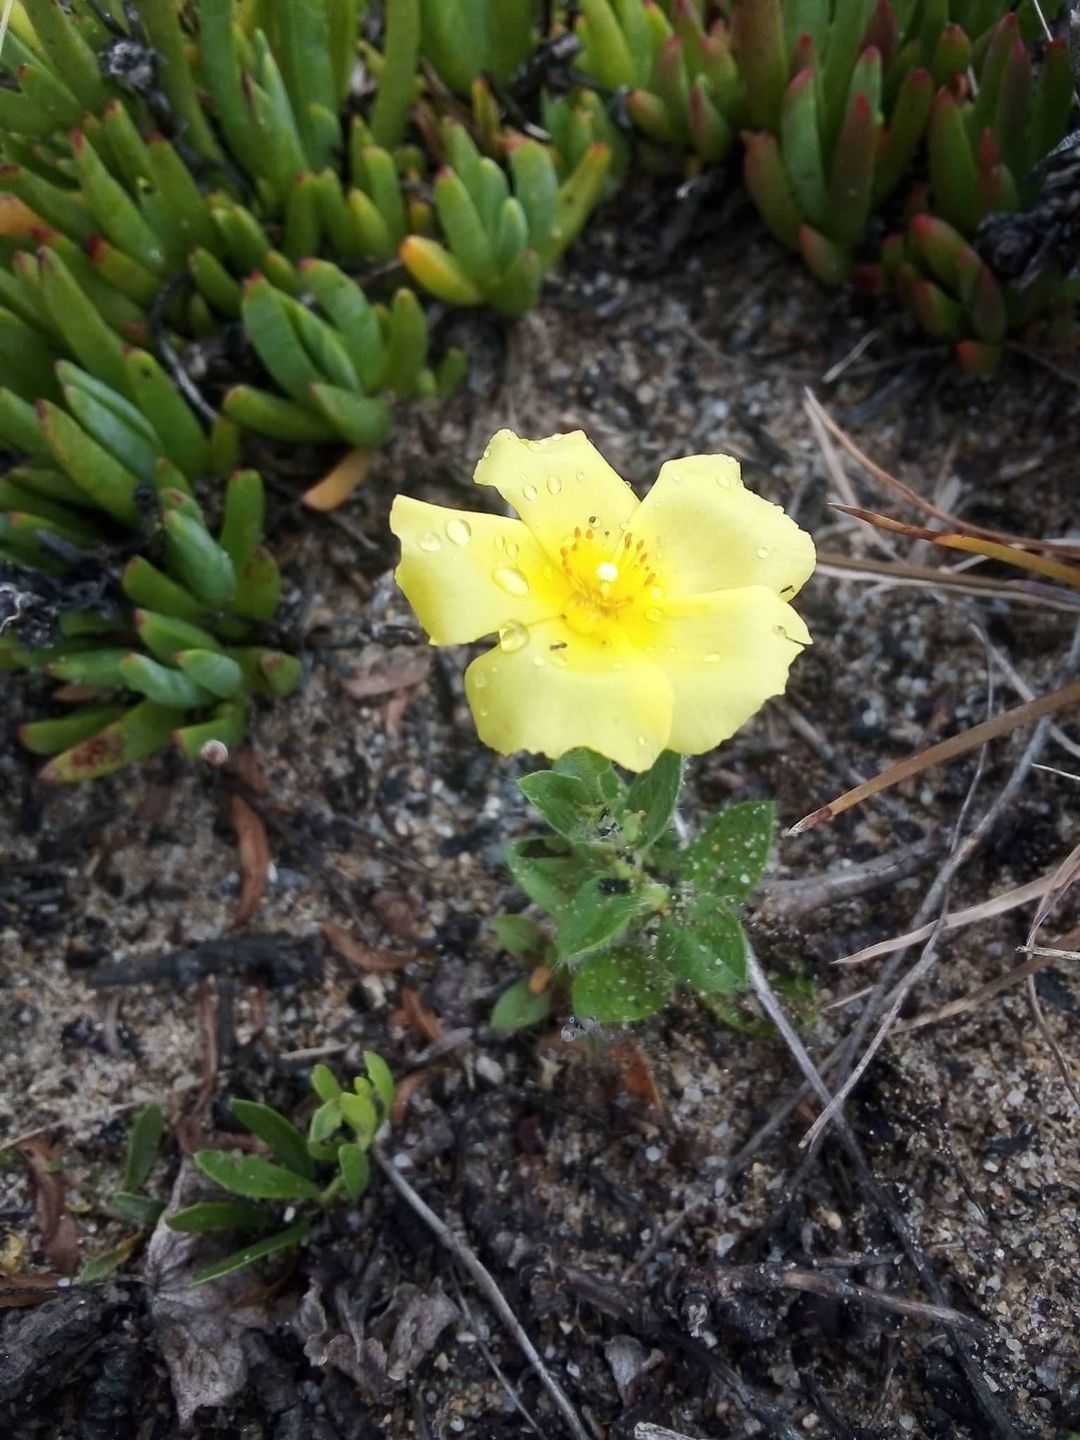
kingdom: Plantae
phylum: Tracheophyta
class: Magnoliopsida
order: Malvales
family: Cistaceae
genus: Crocanthemum
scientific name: Crocanthemum brasiliensis
